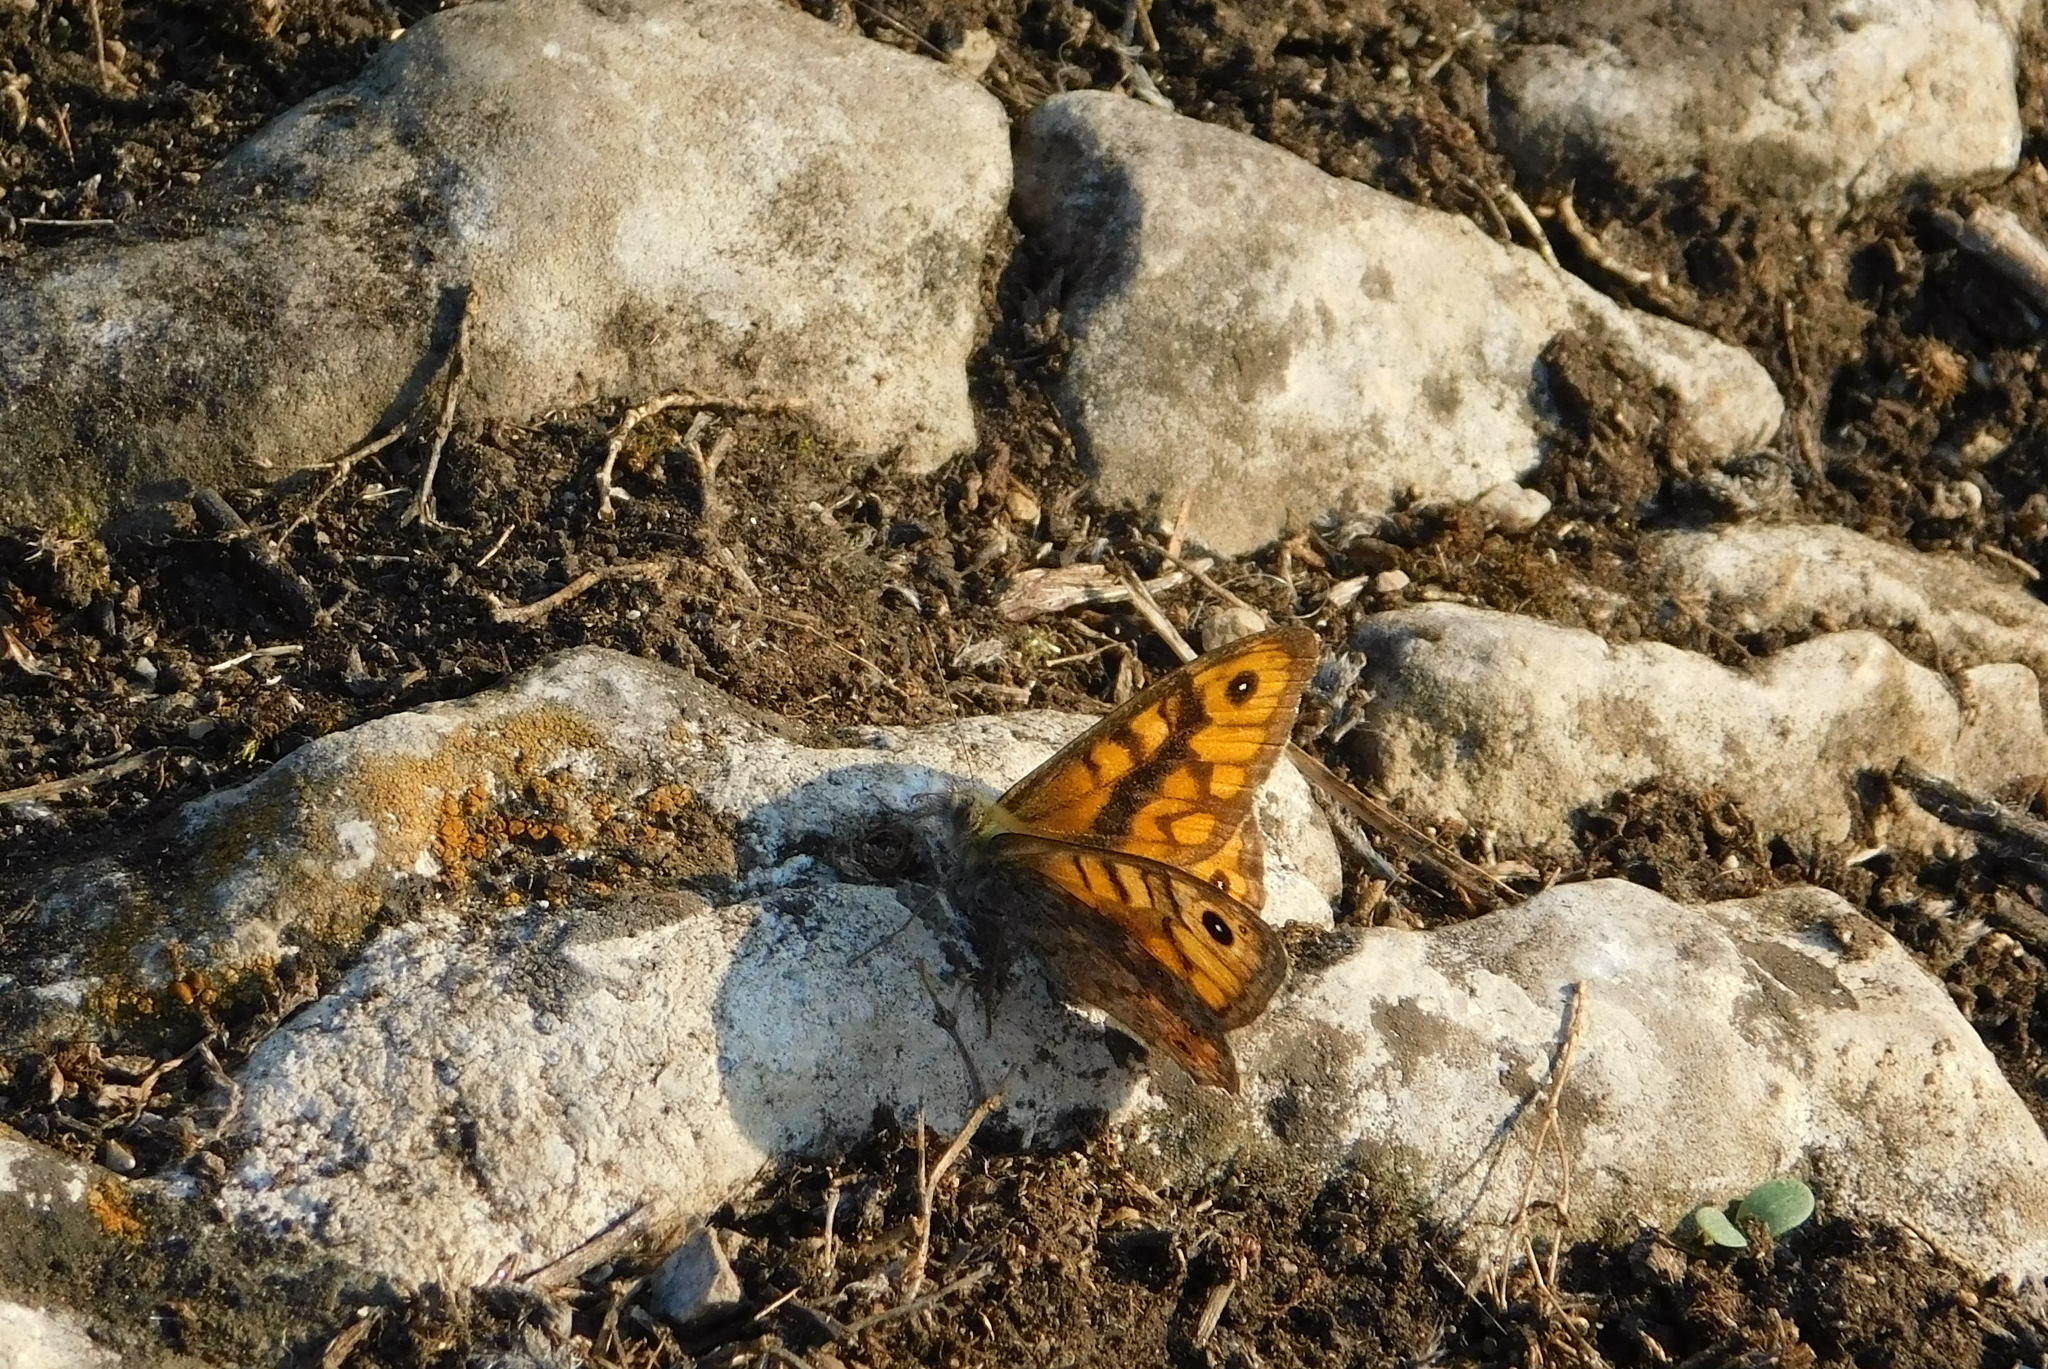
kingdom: Animalia
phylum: Arthropoda
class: Insecta
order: Lepidoptera
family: Nymphalidae
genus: Pararge
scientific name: Pararge Lasiommata megera
